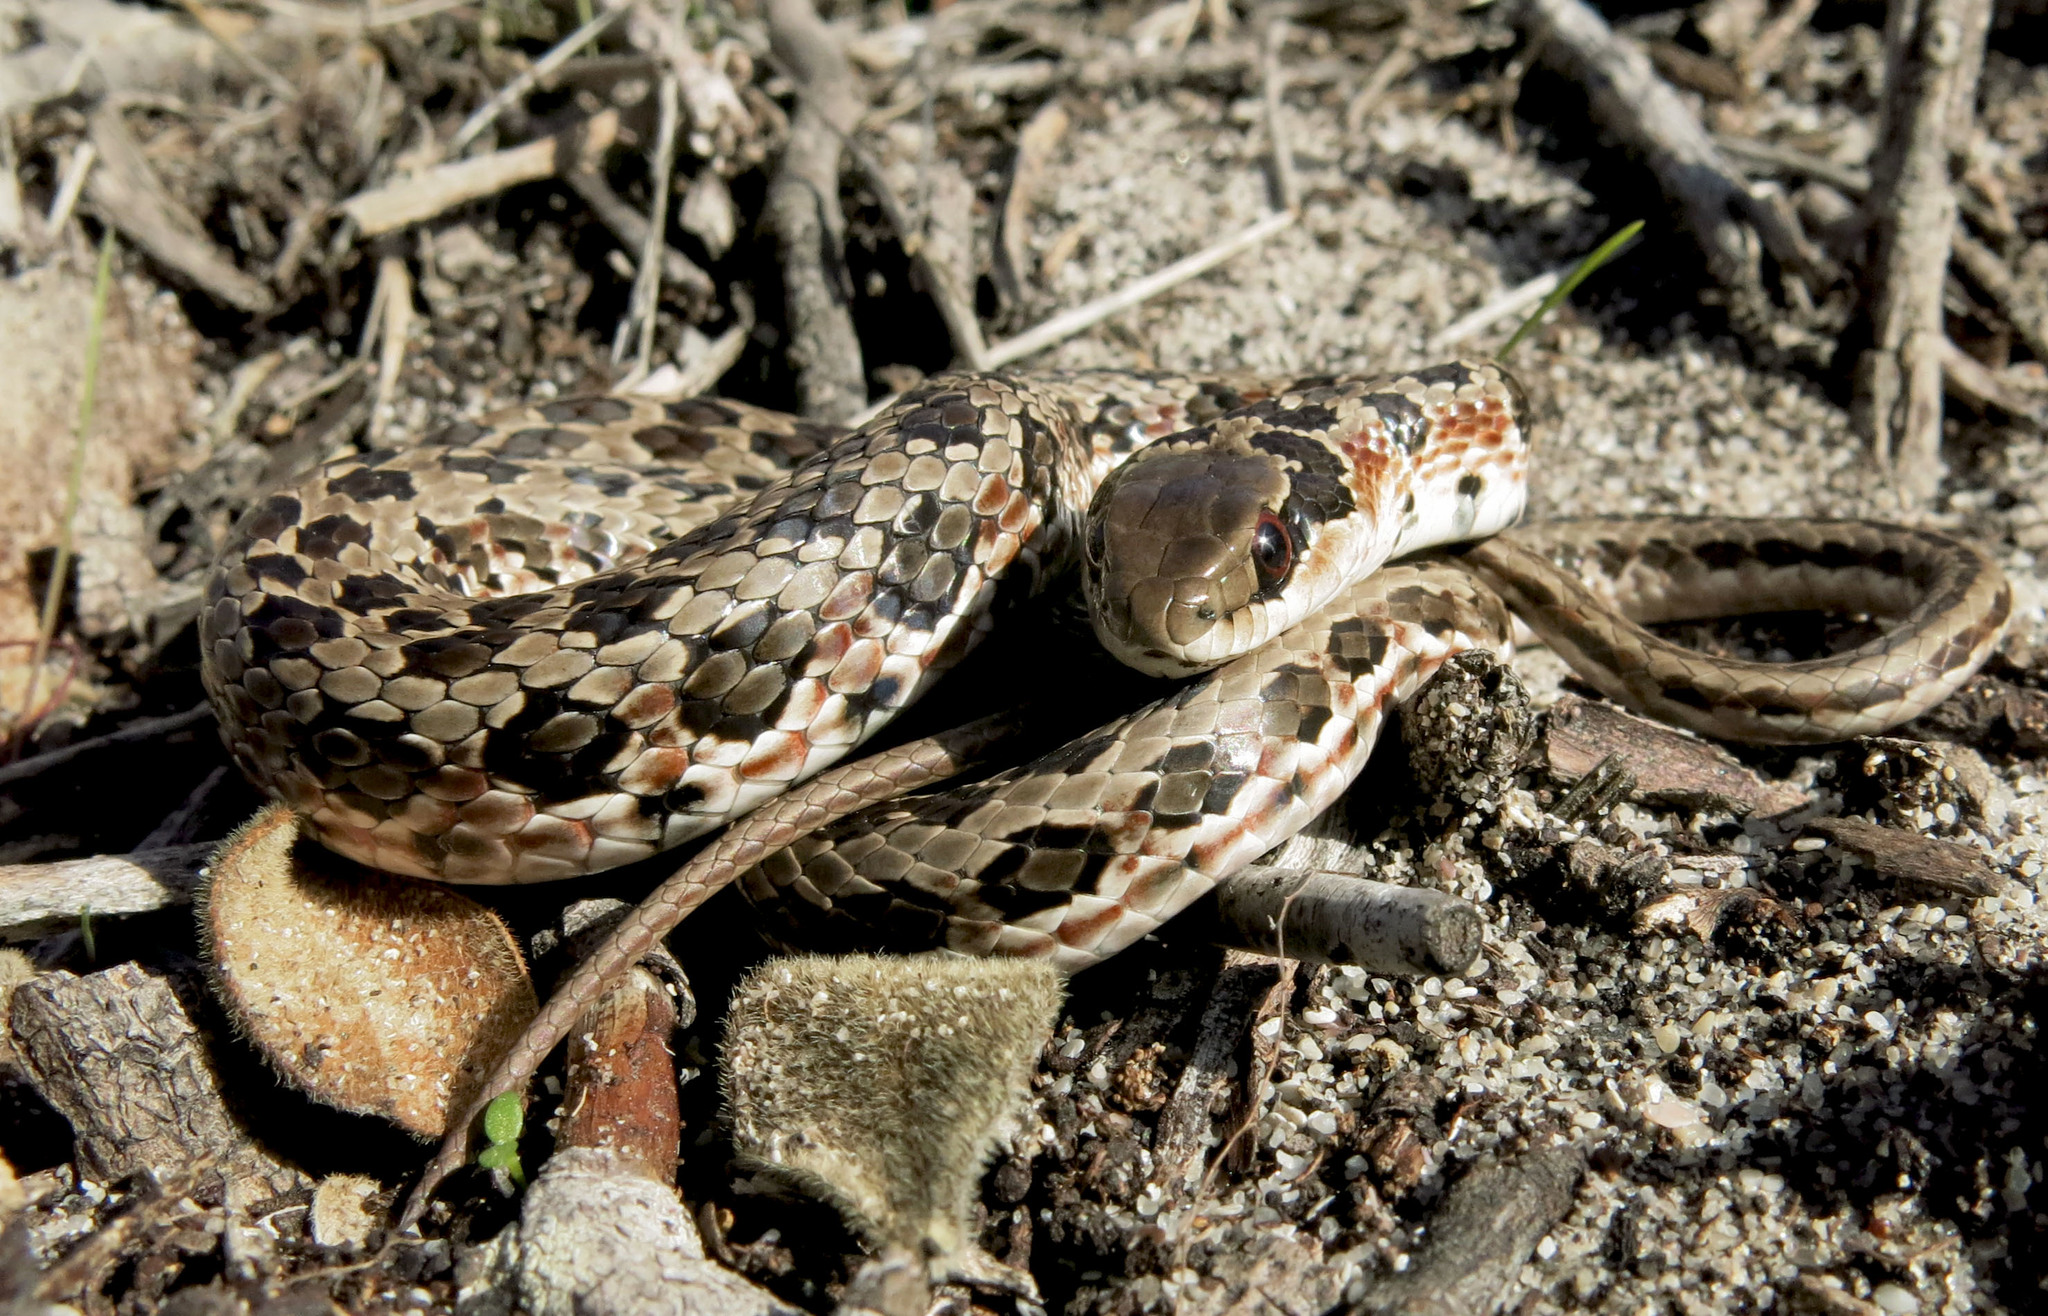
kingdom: Animalia
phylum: Chordata
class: Squamata
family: Psammophiidae
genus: Psammophylax
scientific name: Psammophylax rhombeatus
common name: Rhombic skaapsteker
